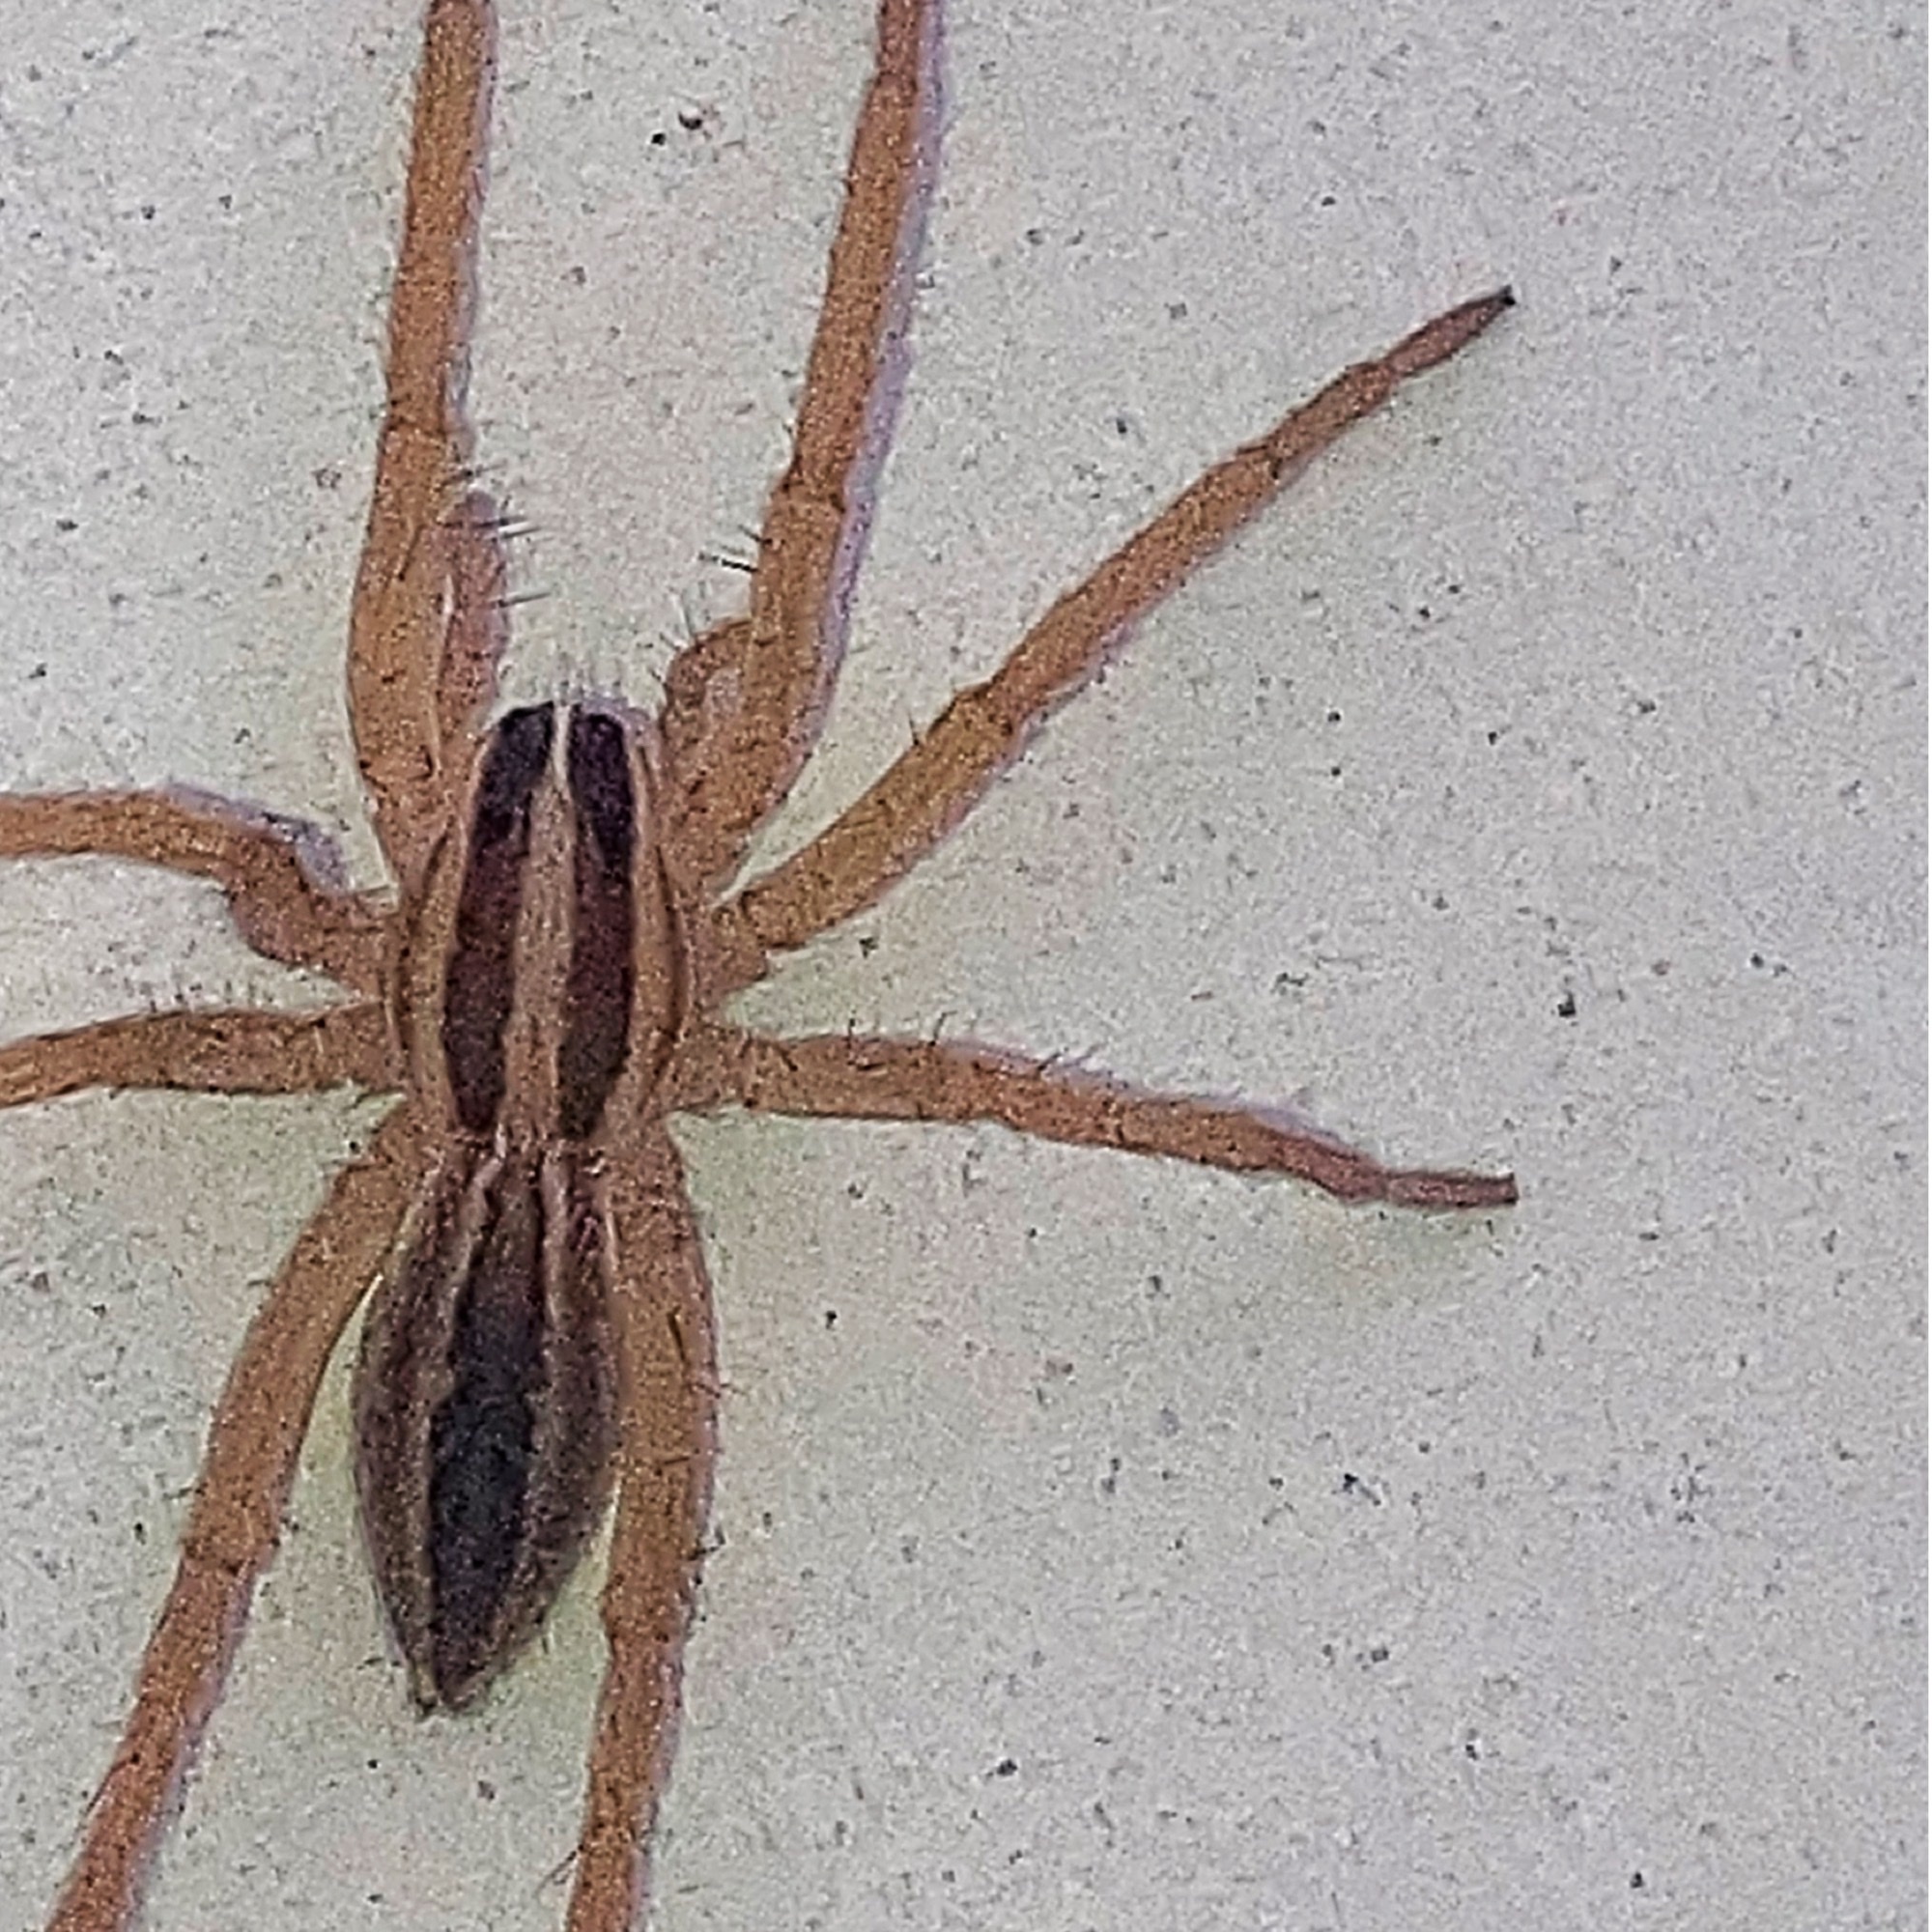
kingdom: Animalia
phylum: Arthropoda
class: Arachnida
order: Araneae
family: Lycosidae
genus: Rabidosa
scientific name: Rabidosa rabida
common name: Rabid wolf spider
